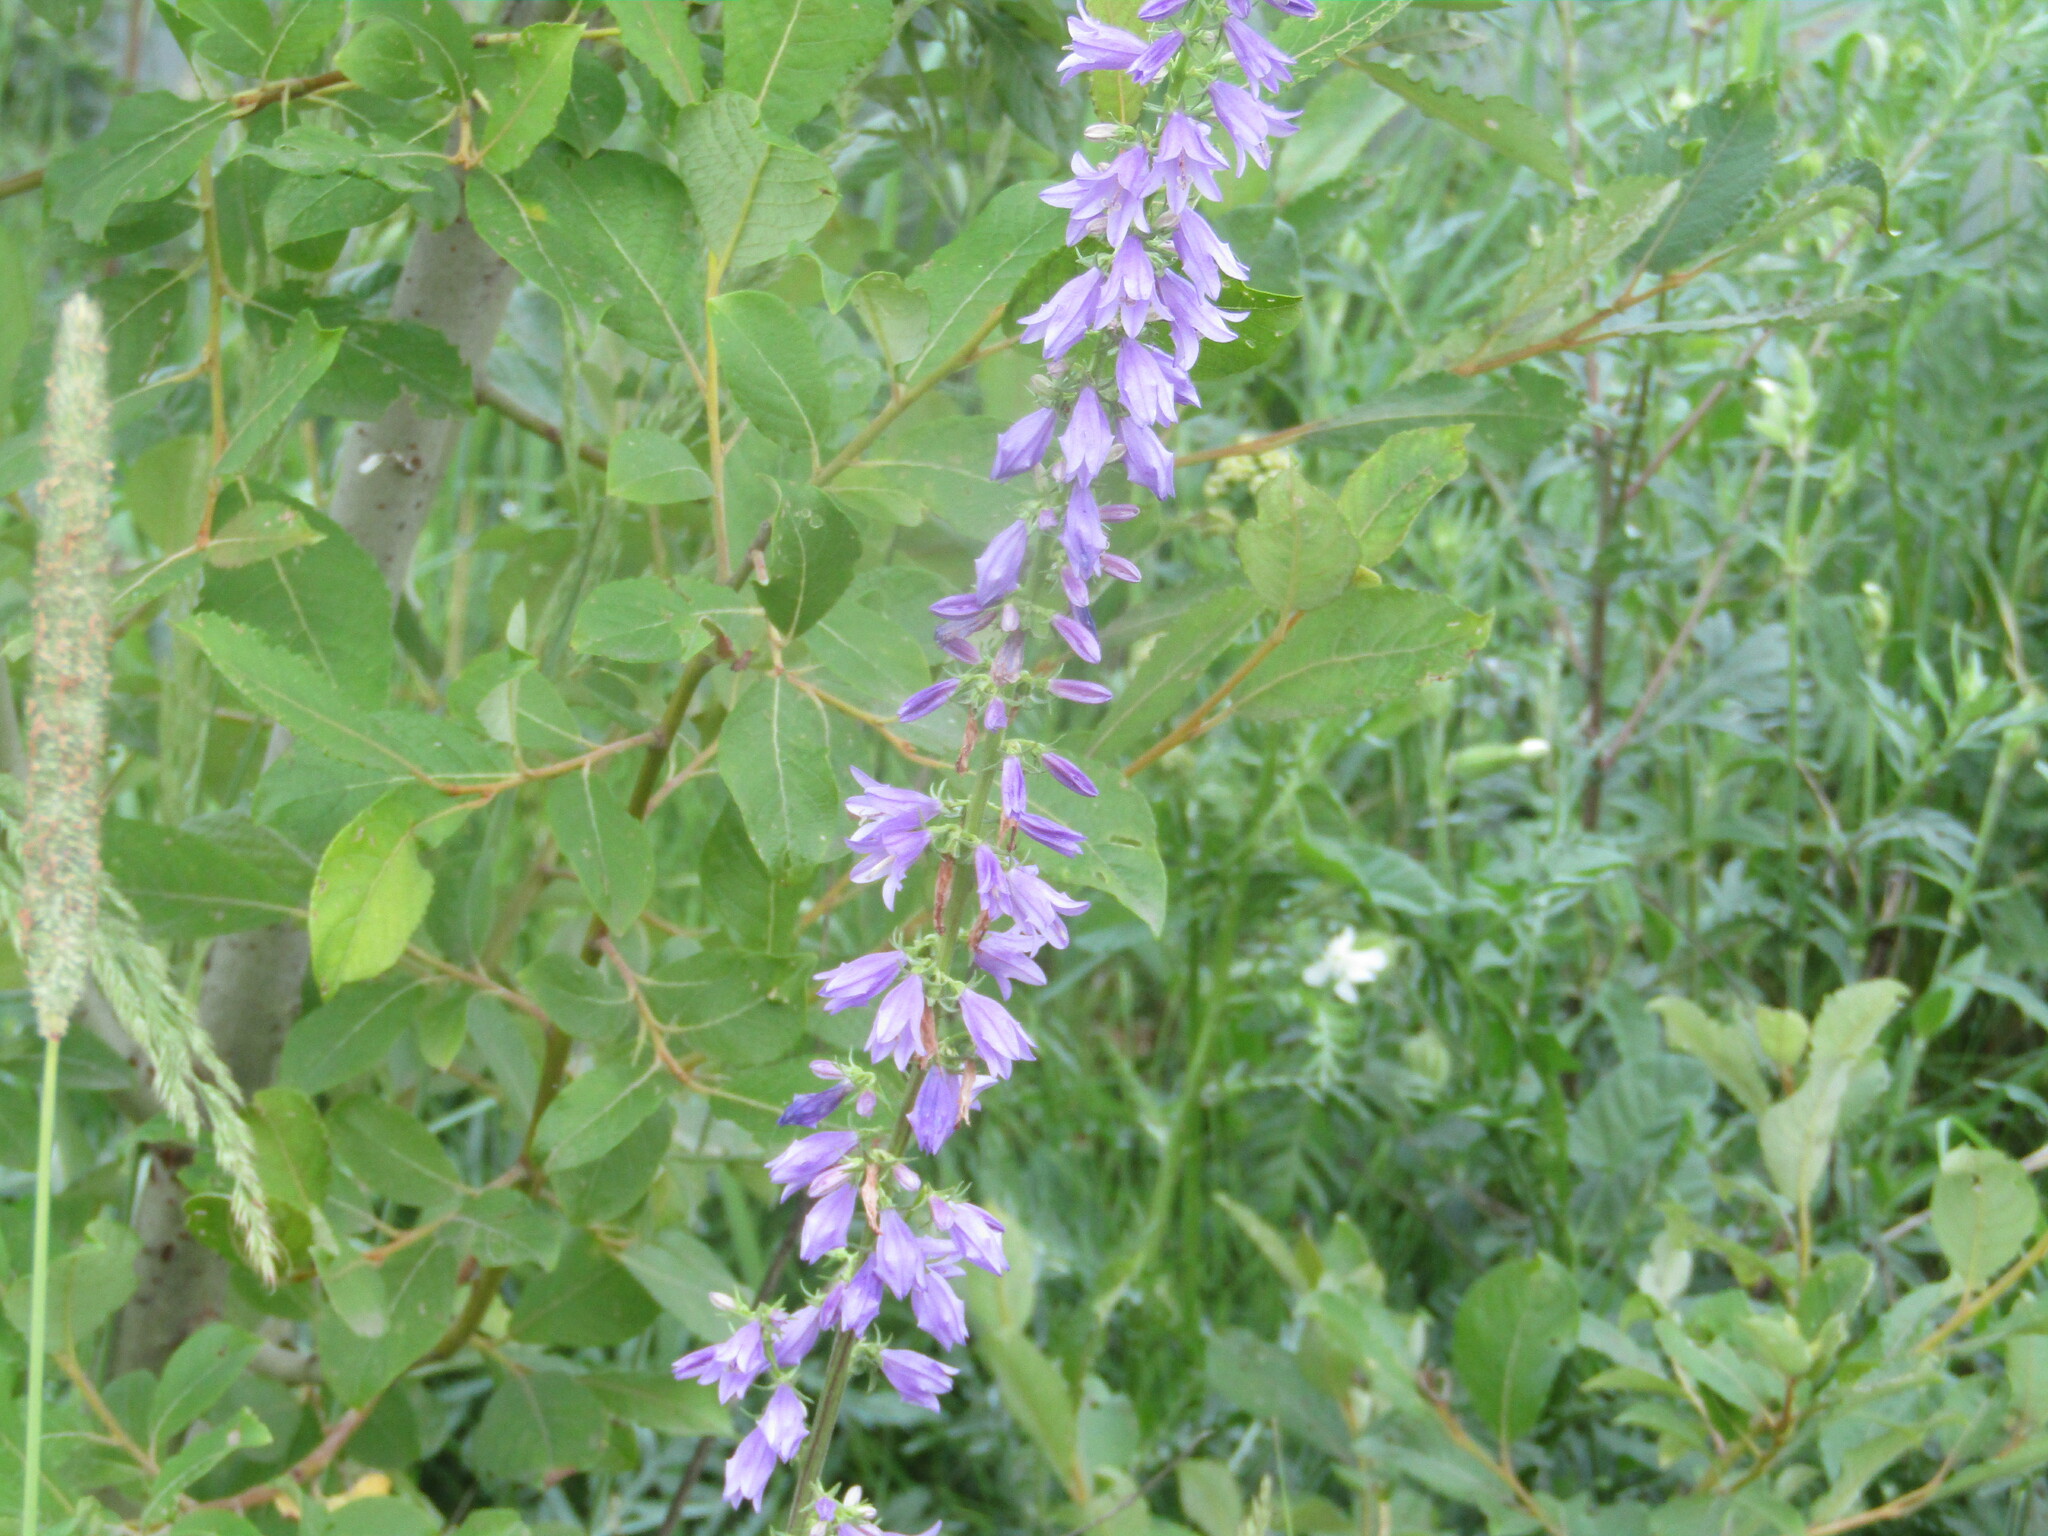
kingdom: Plantae
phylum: Tracheophyta
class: Magnoliopsida
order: Asterales
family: Campanulaceae
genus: Campanula
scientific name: Campanula bononiensis
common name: Pale bellflower
